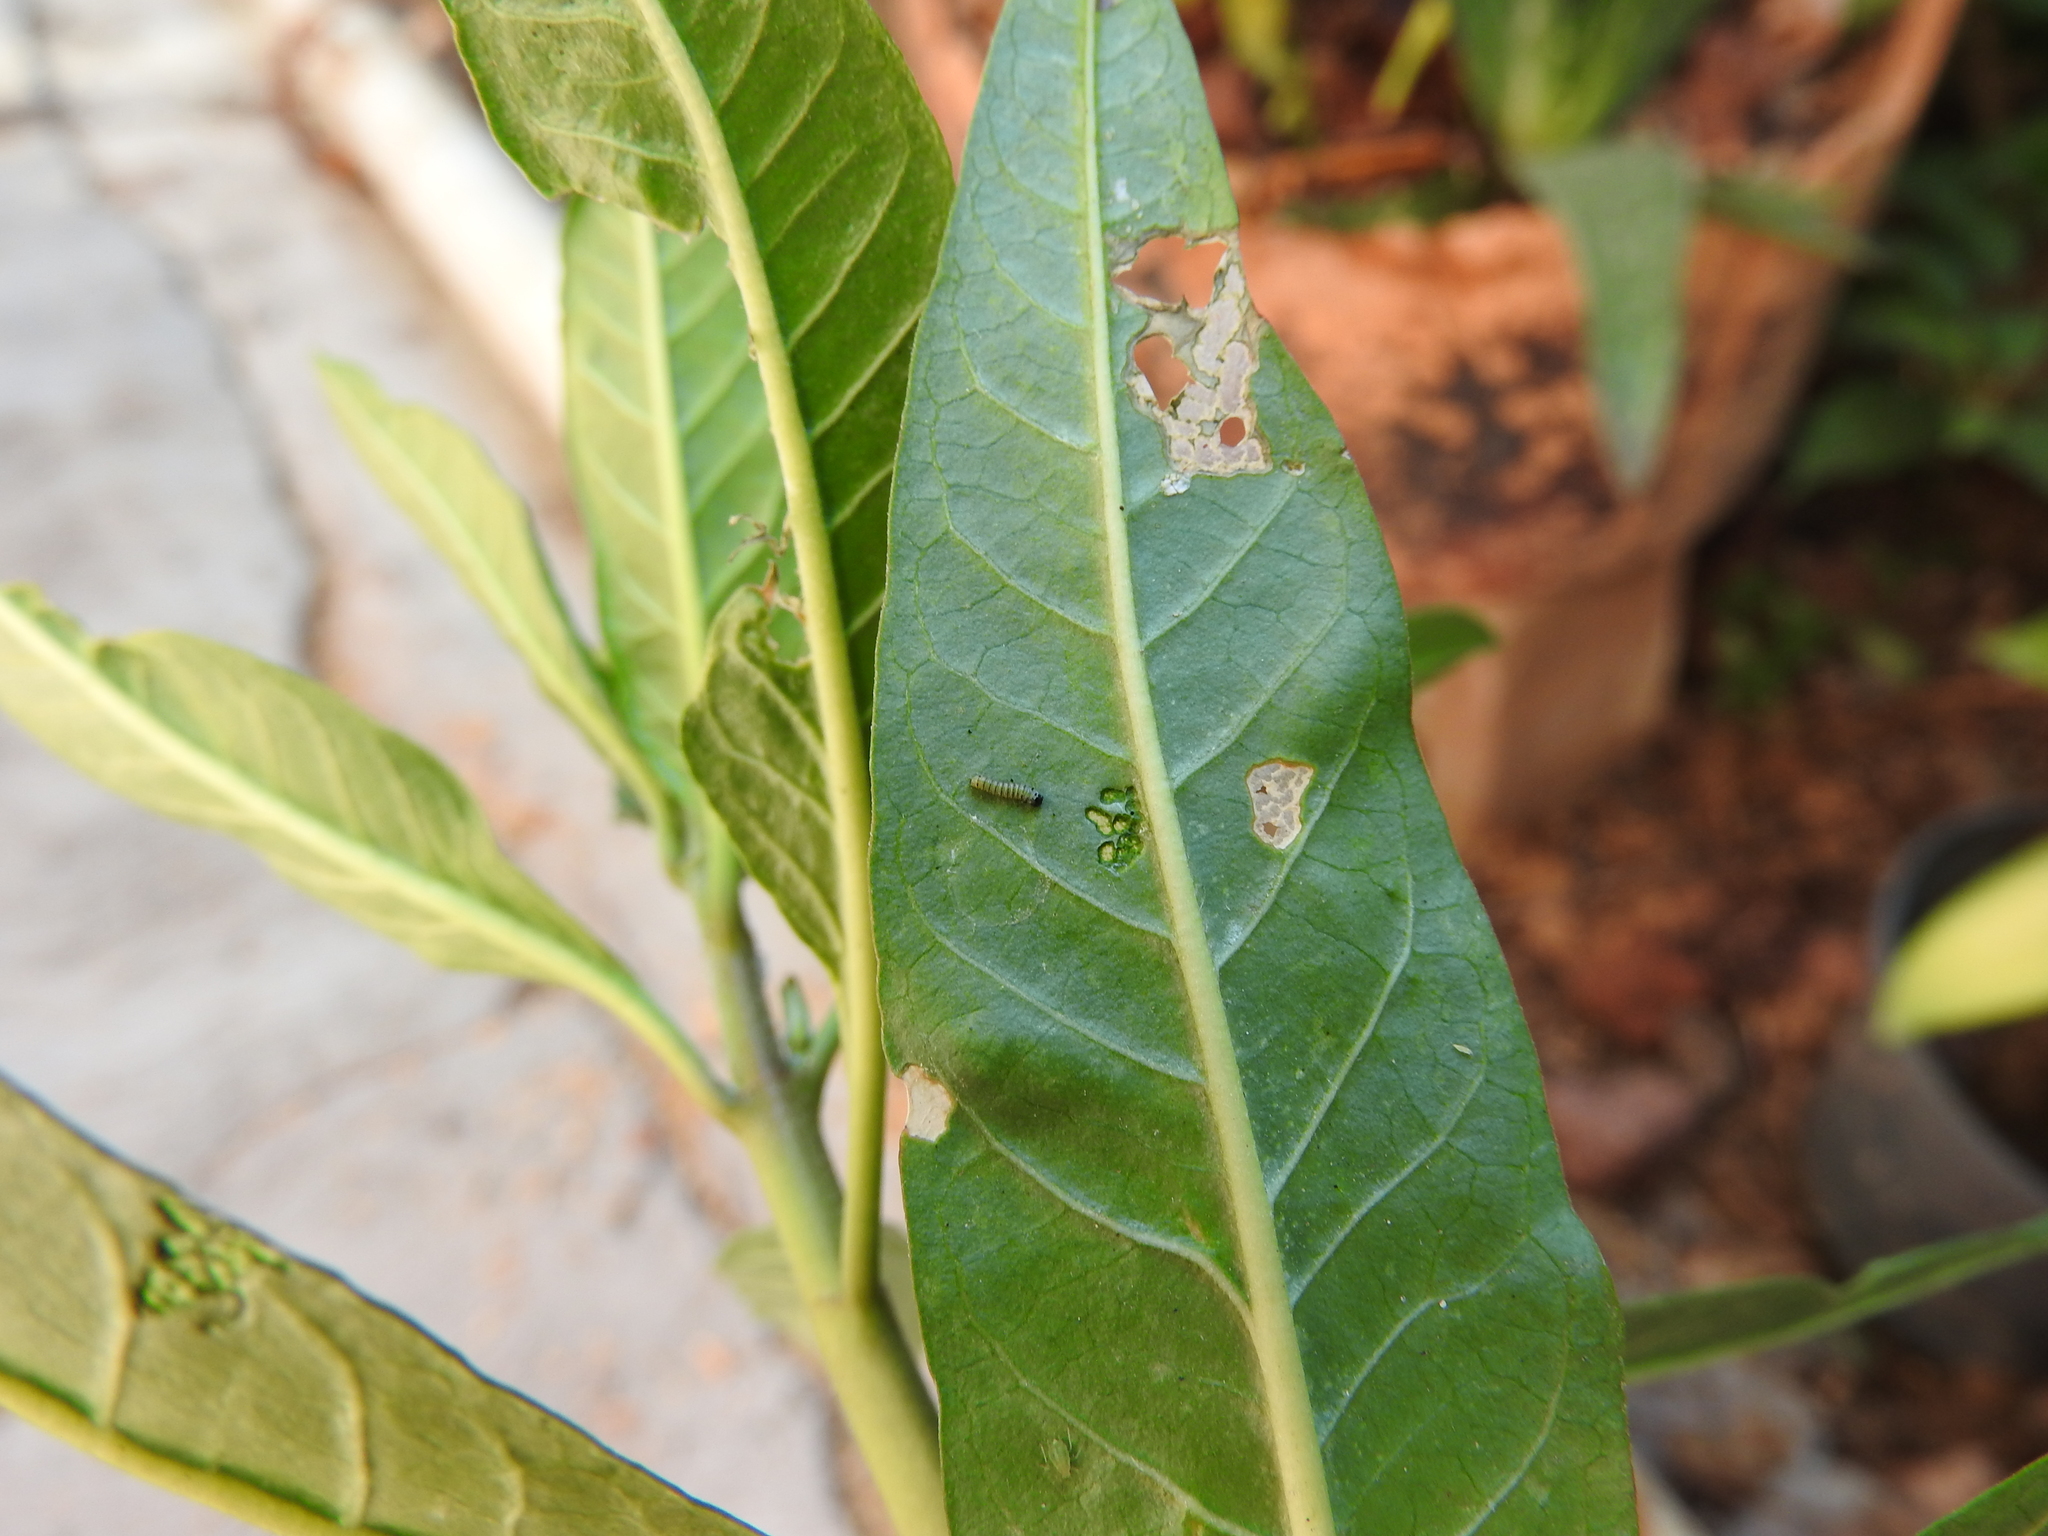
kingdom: Animalia
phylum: Arthropoda
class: Insecta
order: Lepidoptera
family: Nymphalidae
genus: Danaus
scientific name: Danaus plexippus
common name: Monarch
